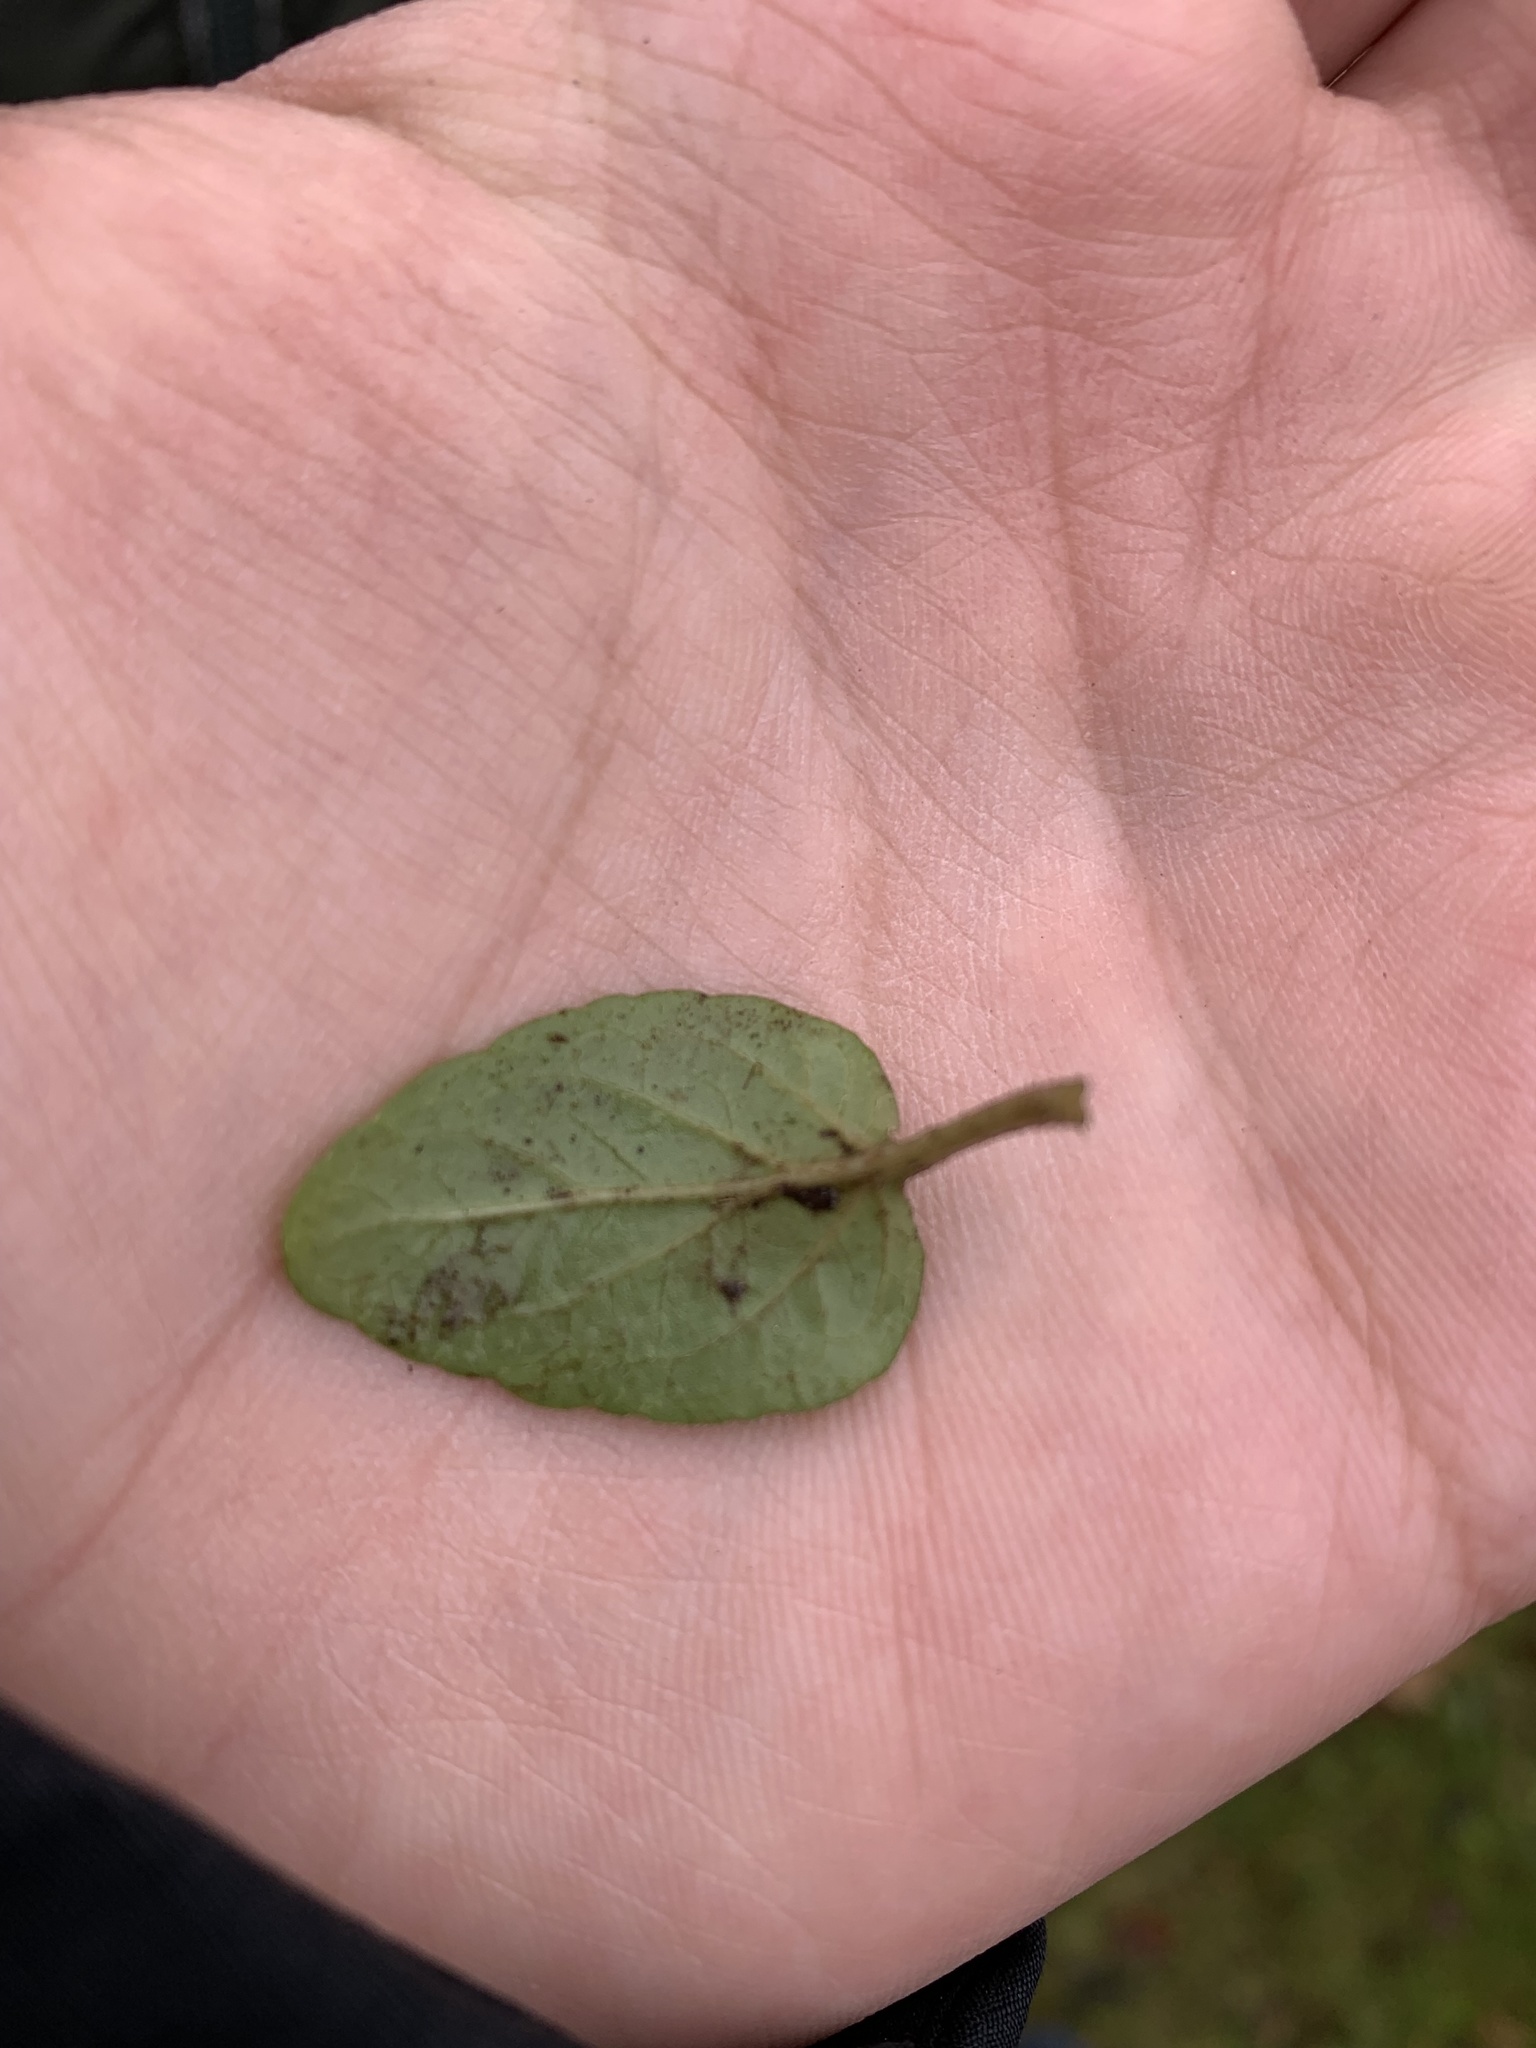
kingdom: Plantae
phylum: Tracheophyta
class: Magnoliopsida
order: Lamiales
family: Lamiaceae
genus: Prunella
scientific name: Prunella vulgaris
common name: Heal-all
